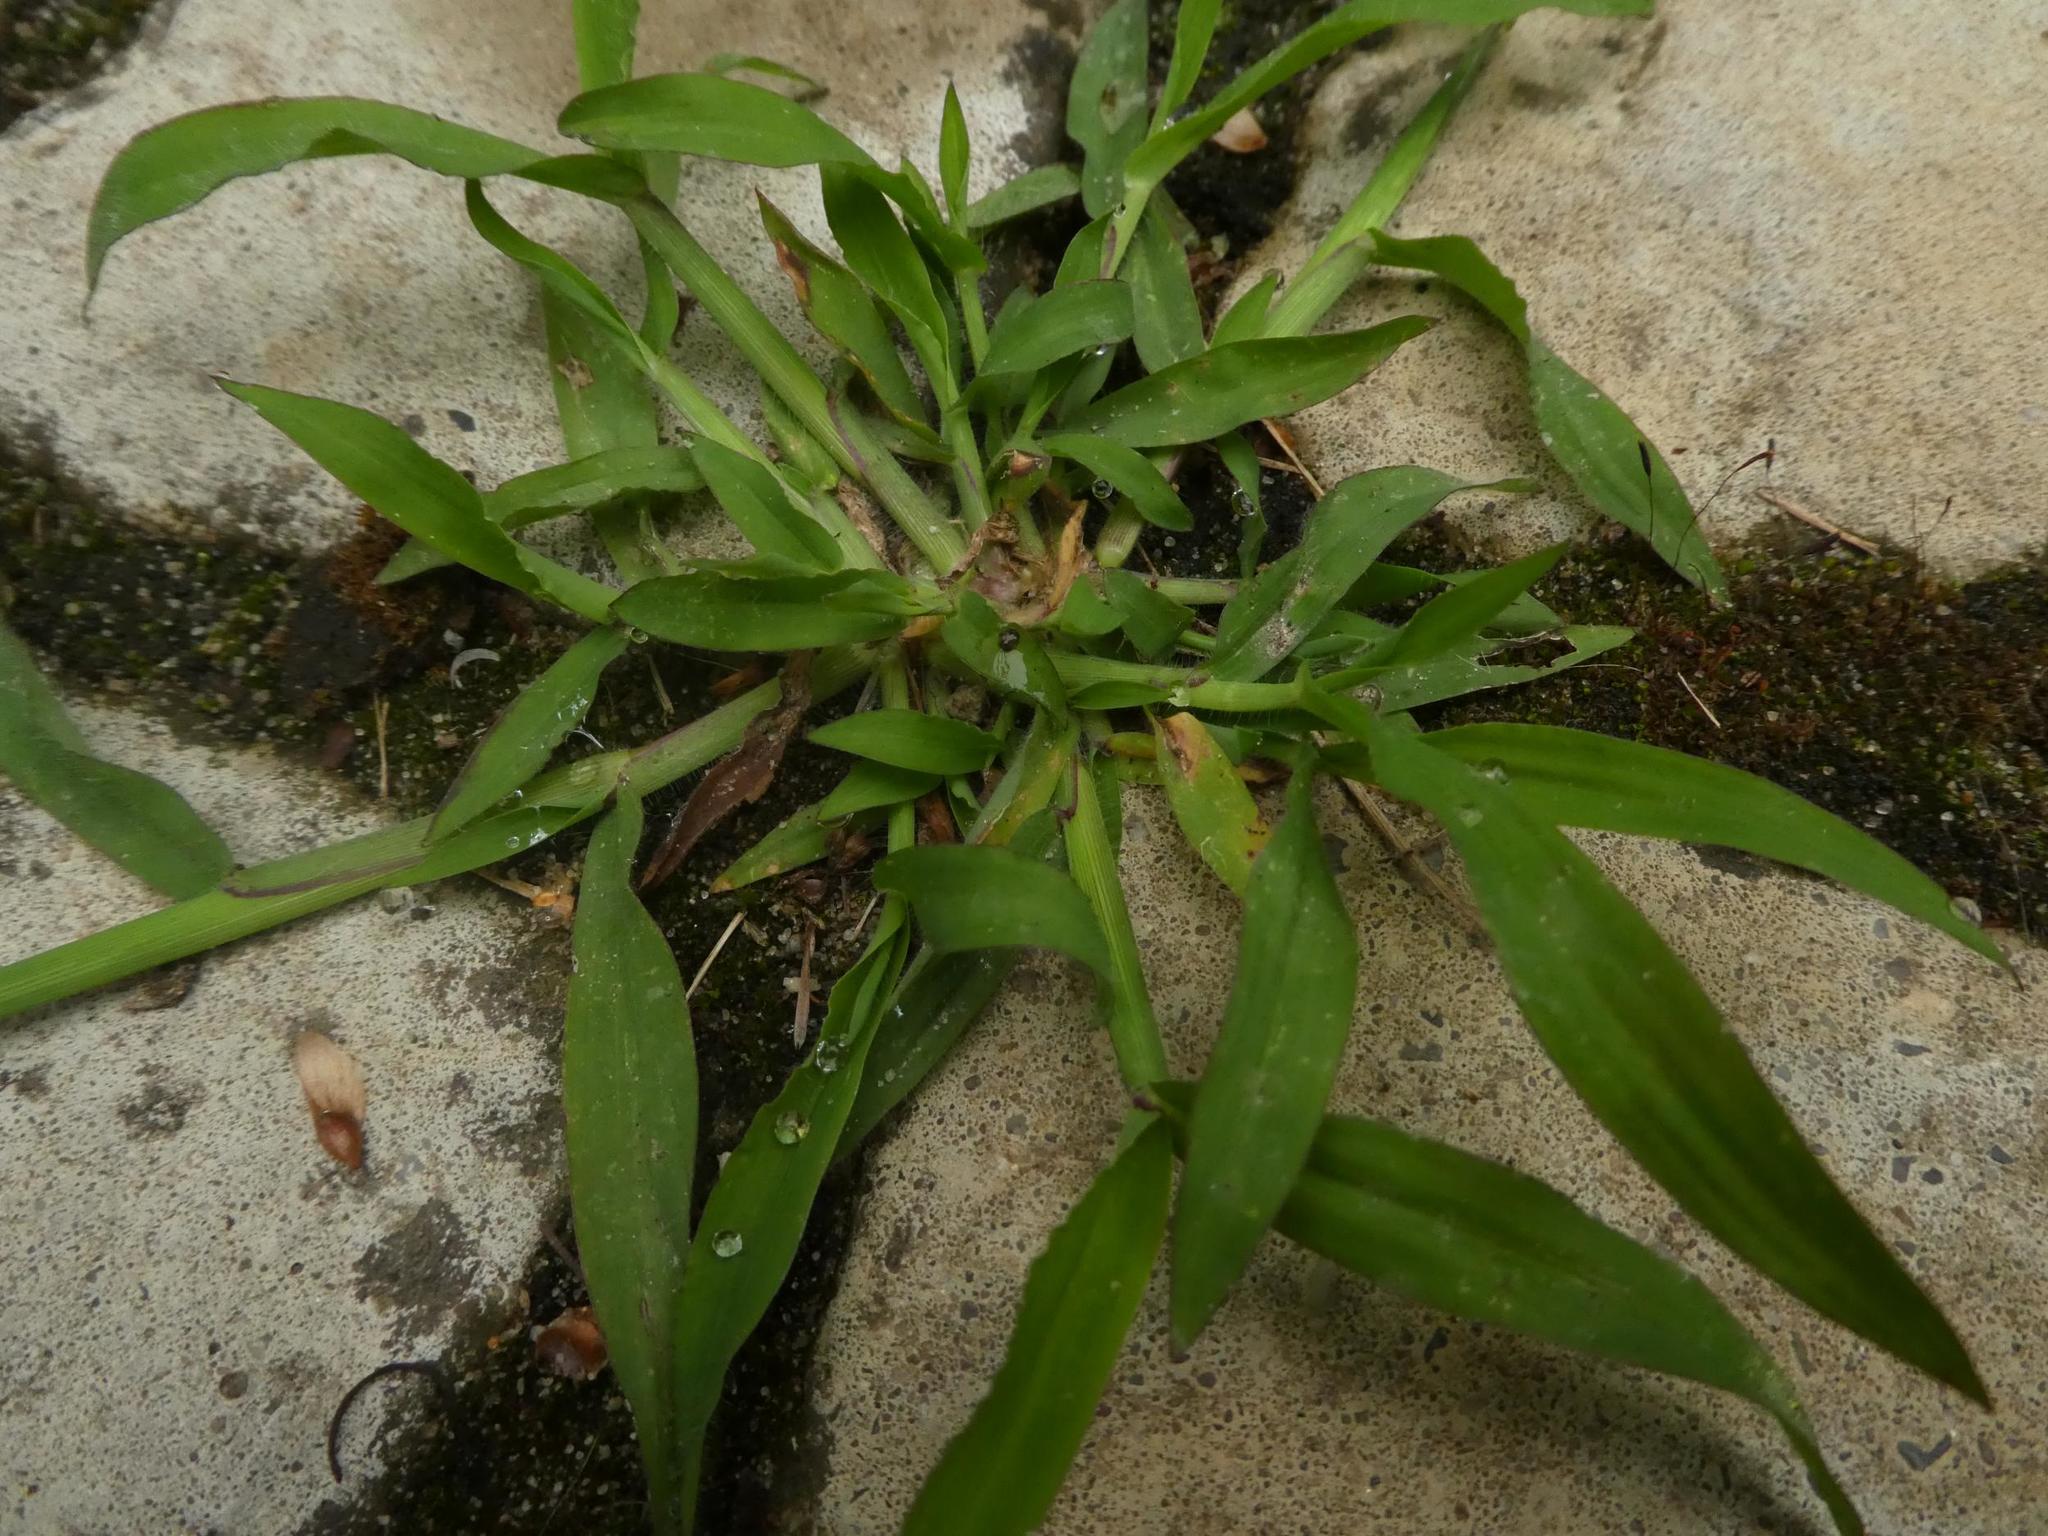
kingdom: Plantae
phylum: Tracheophyta
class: Liliopsida
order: Poales
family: Poaceae
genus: Digitaria
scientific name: Digitaria sanguinalis
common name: Hairy crabgrass
